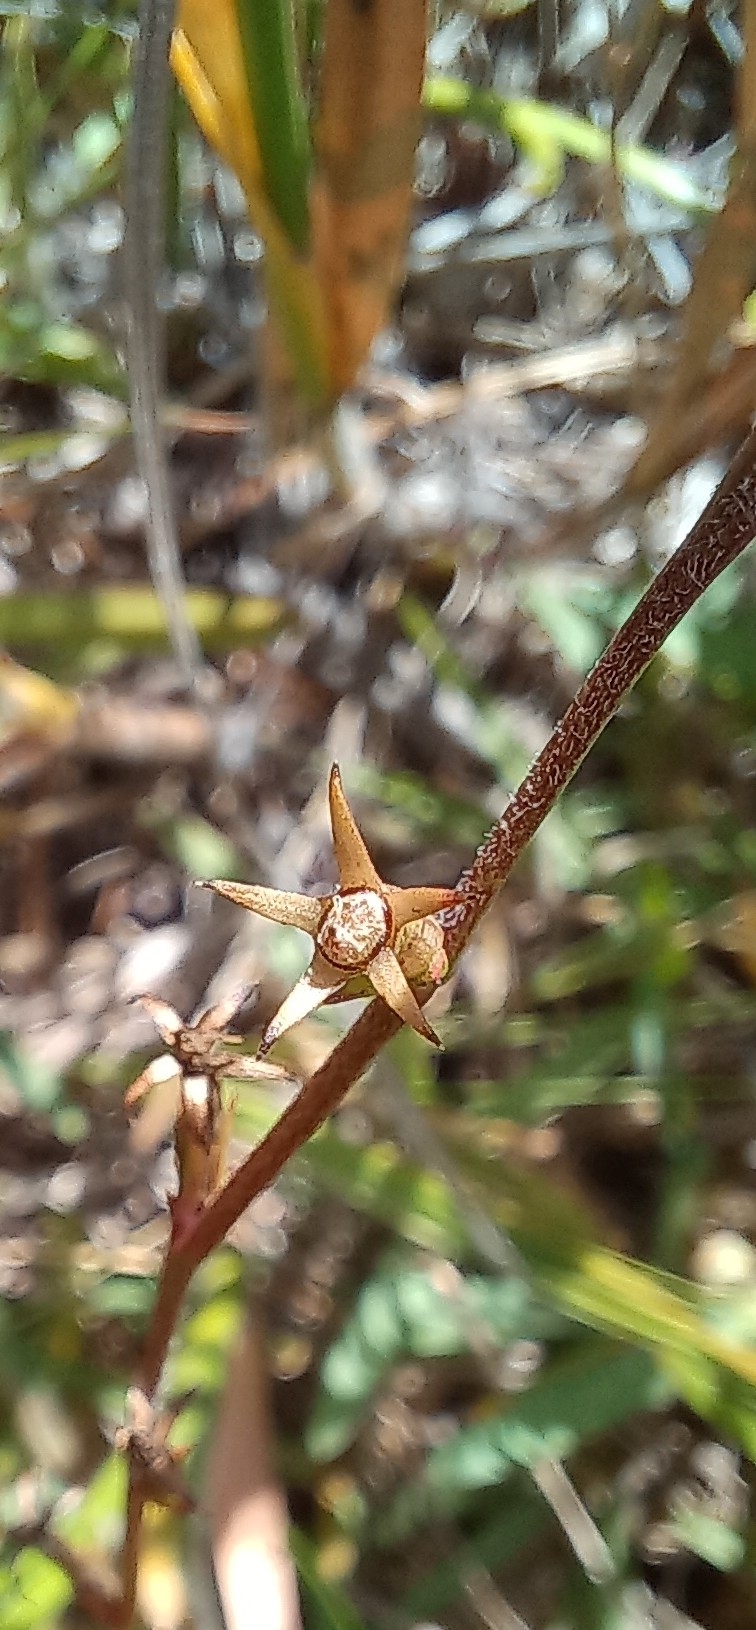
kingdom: Plantae
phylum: Tracheophyta
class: Magnoliopsida
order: Asterales
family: Campanulaceae
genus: Monopsis
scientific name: Monopsis lutea
